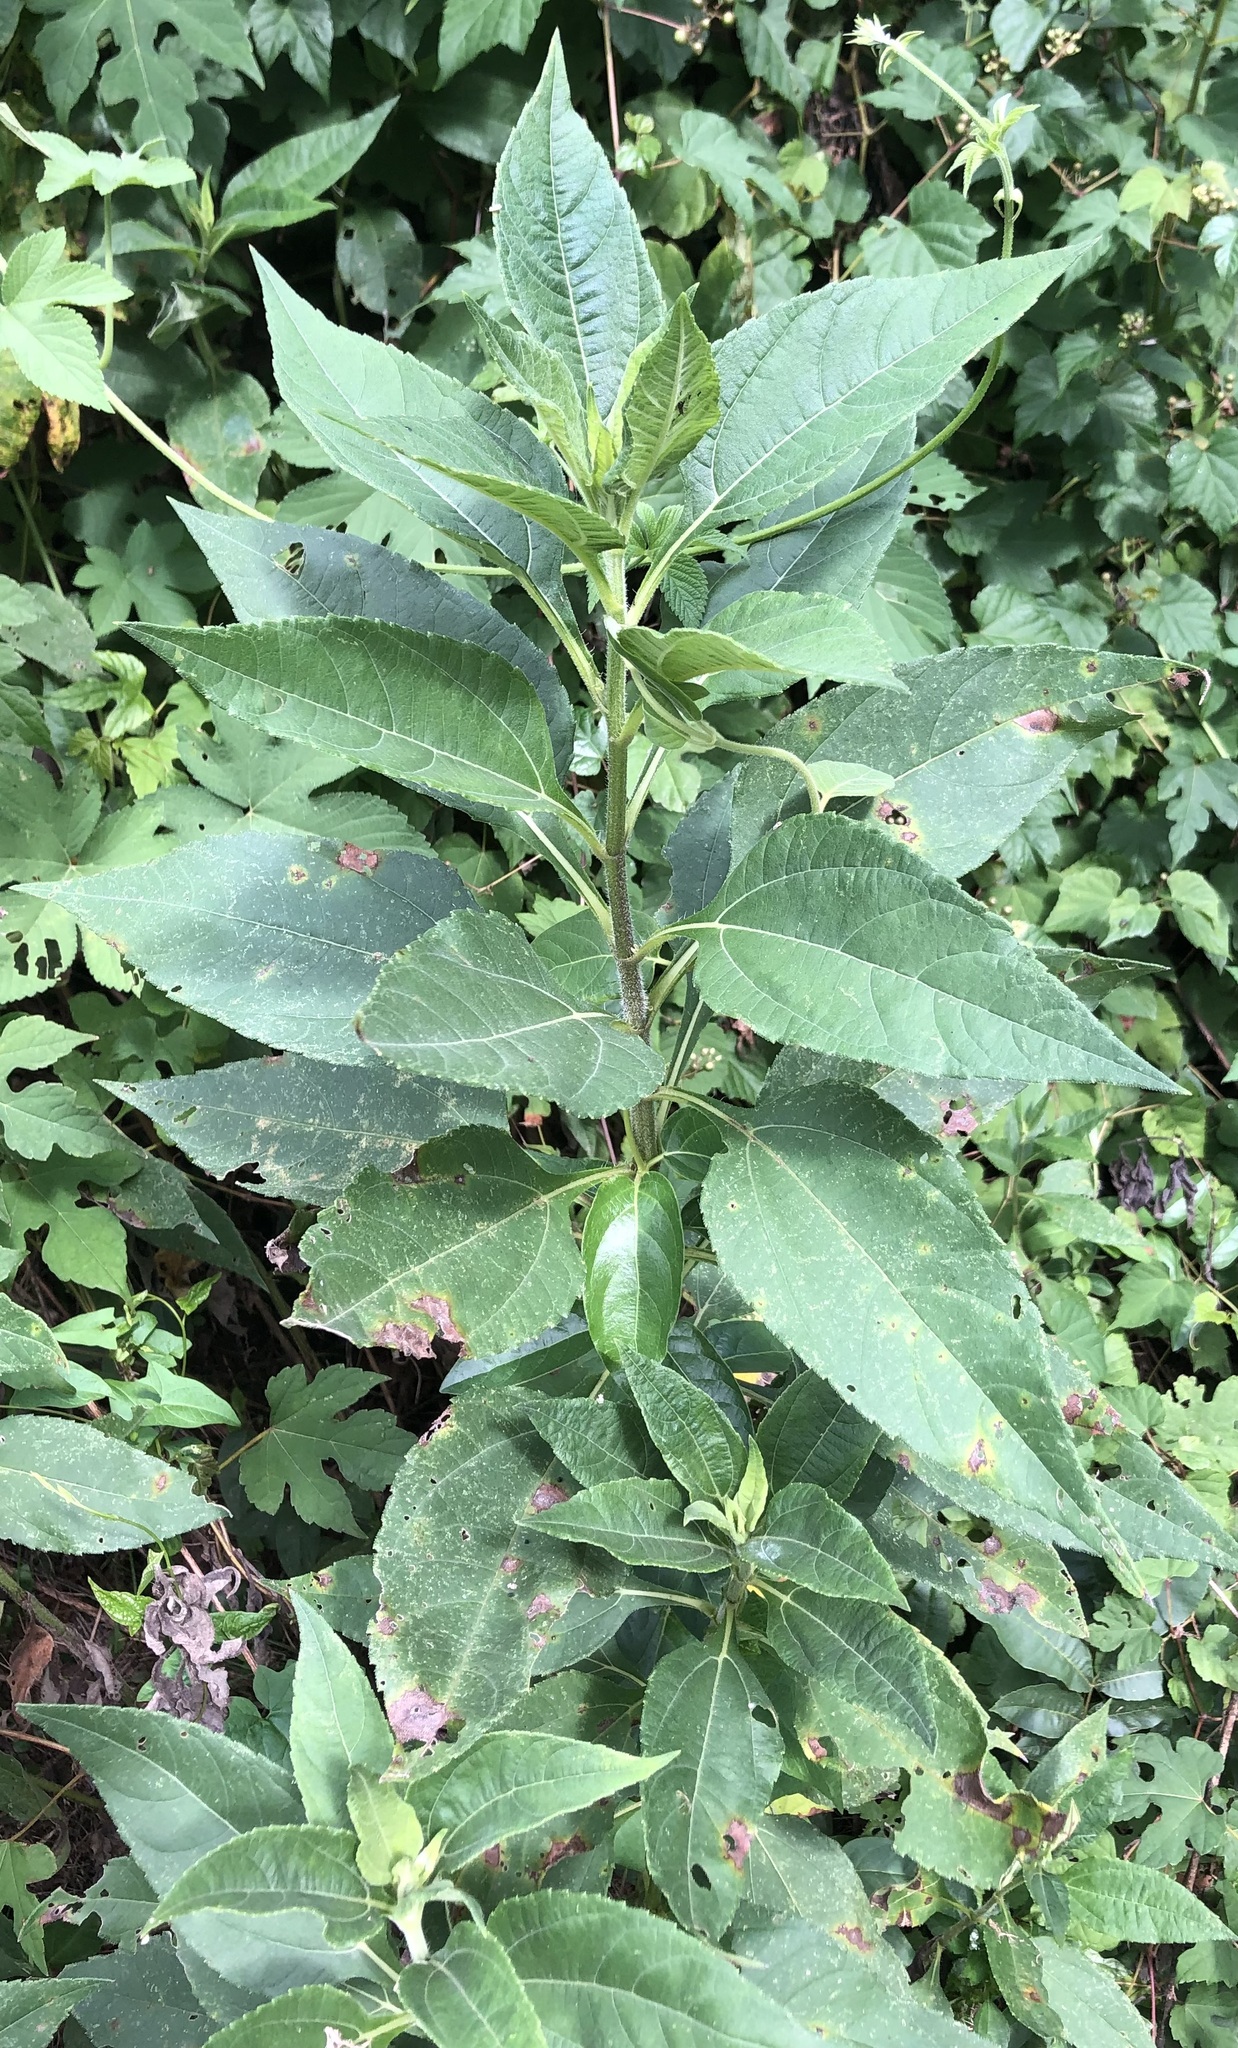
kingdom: Plantae
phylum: Tracheophyta
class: Magnoliopsida
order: Asterales
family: Asteraceae
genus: Helianthus
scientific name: Helianthus tuberosus
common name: Jerusalem artichoke
